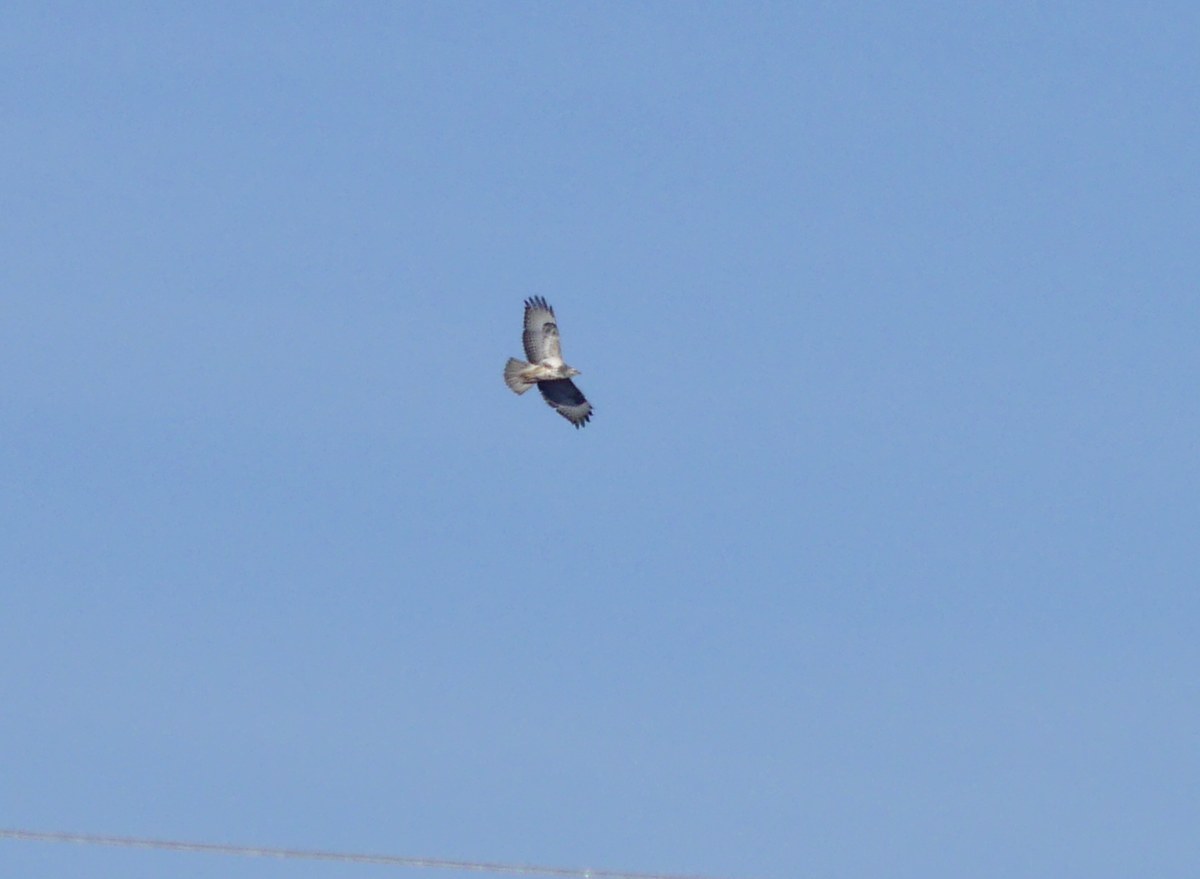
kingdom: Animalia
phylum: Chordata
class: Aves
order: Accipitriformes
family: Accipitridae
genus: Buteo
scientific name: Buteo buteo
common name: Common buzzard
